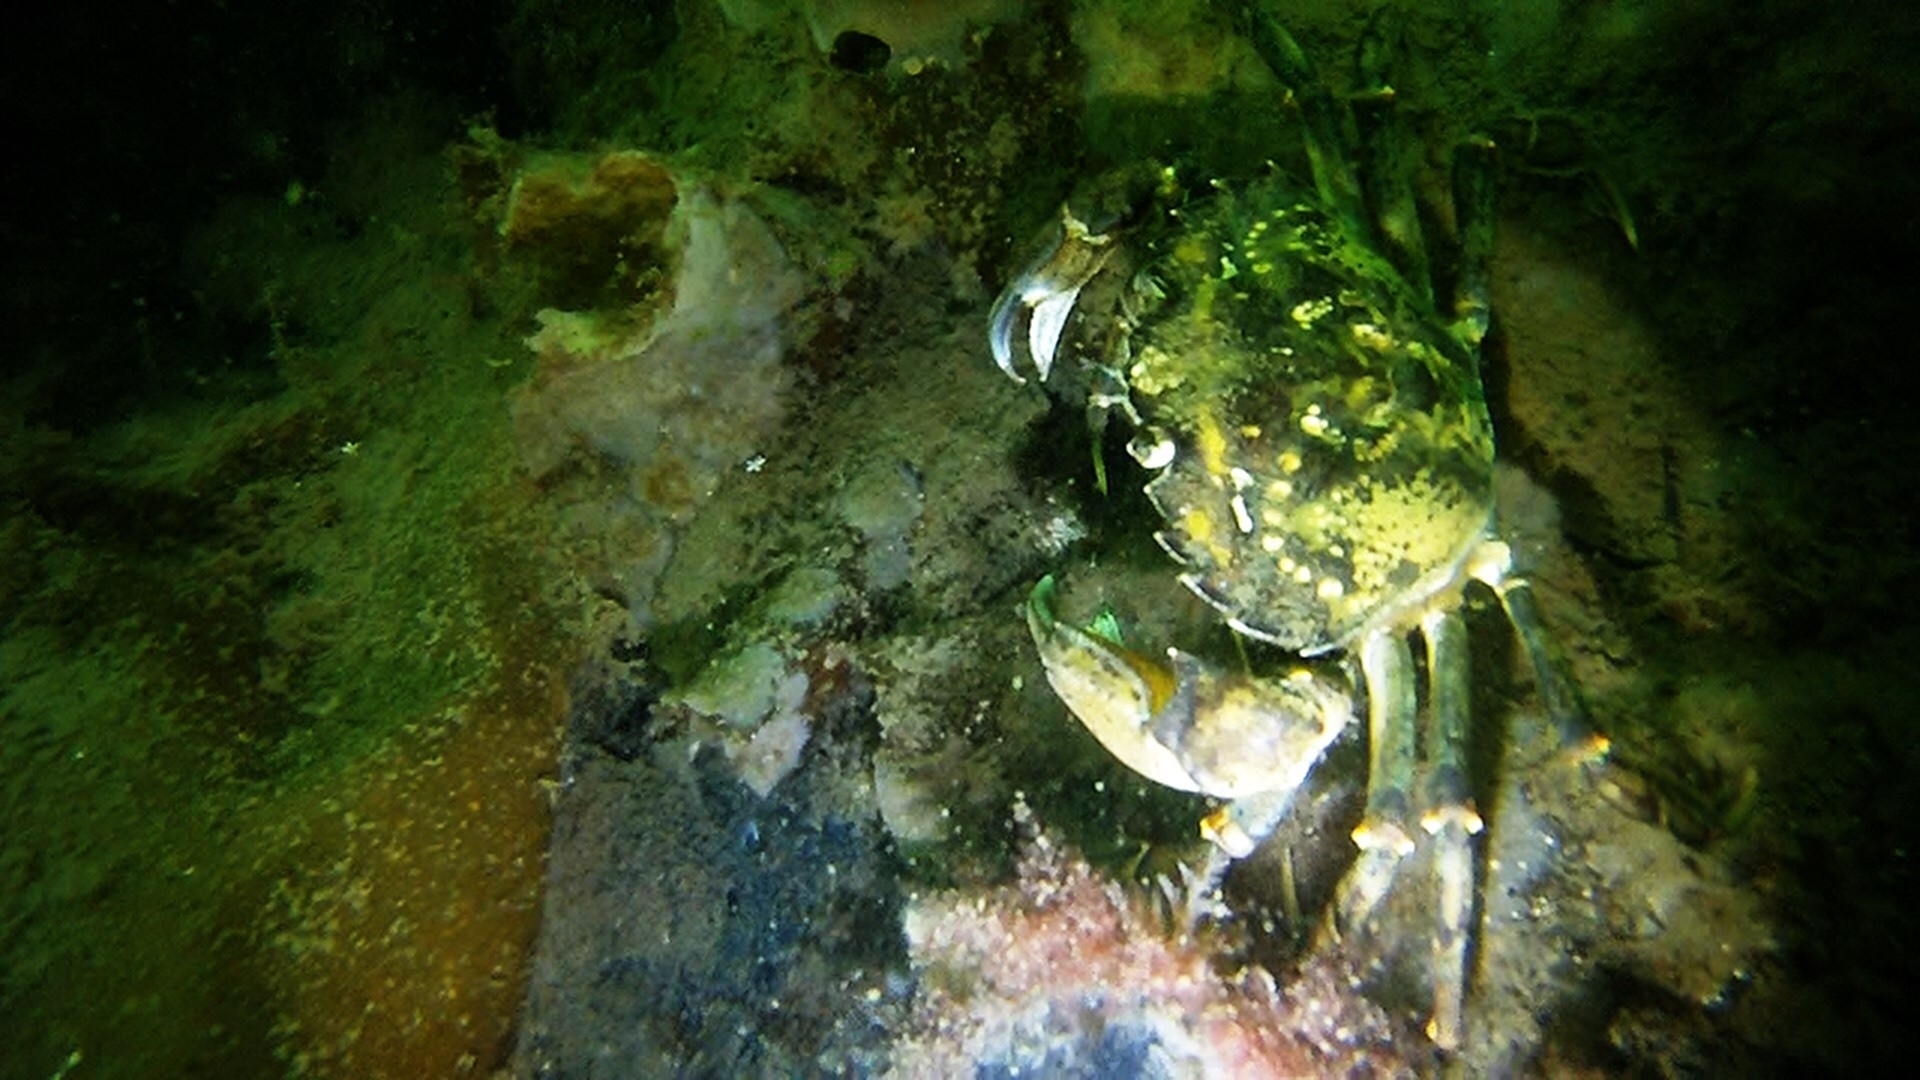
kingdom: Animalia
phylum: Arthropoda
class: Malacostraca
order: Decapoda
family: Carcinidae
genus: Carcinus
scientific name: Carcinus maenas
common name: European green crab
